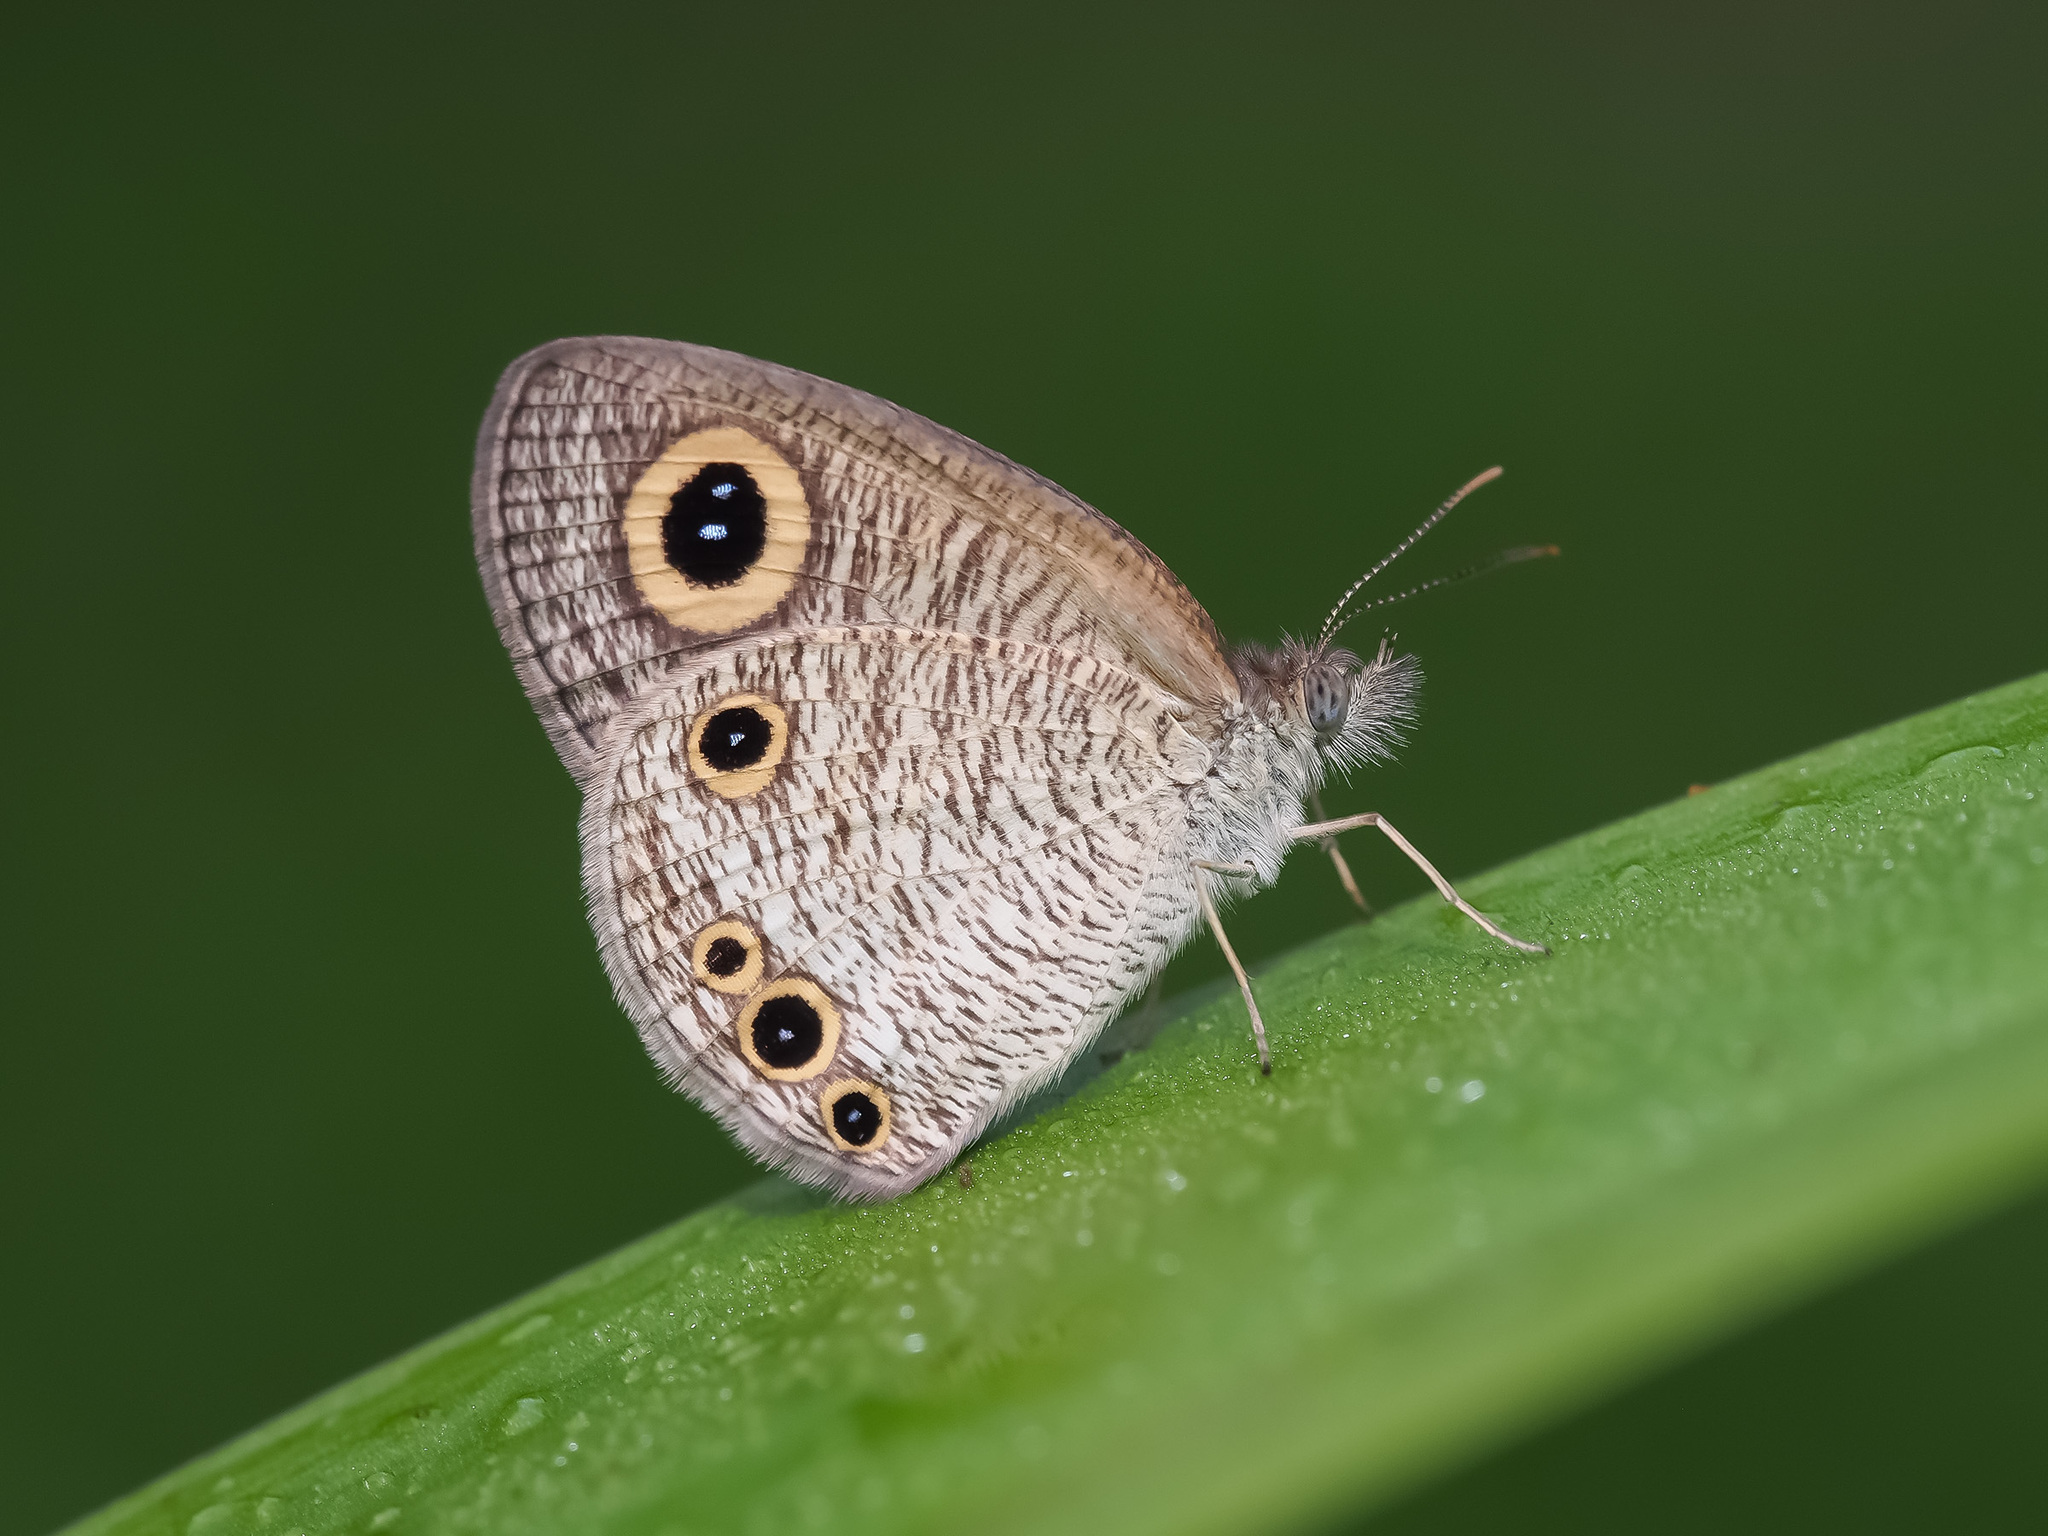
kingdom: Animalia
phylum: Arthropoda
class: Insecta
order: Lepidoptera
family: Nymphalidae
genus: Ypthima
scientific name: Ypthima huebneri
